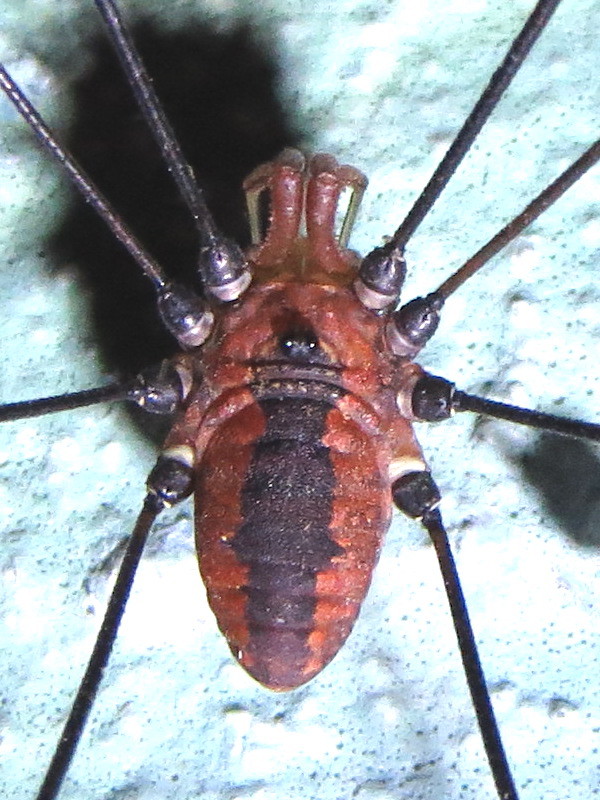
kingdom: Animalia
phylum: Arthropoda
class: Arachnida
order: Opiliones
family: Sclerosomatidae
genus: Leiobunum
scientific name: Leiobunum vittatum
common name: Eastern harvestman
